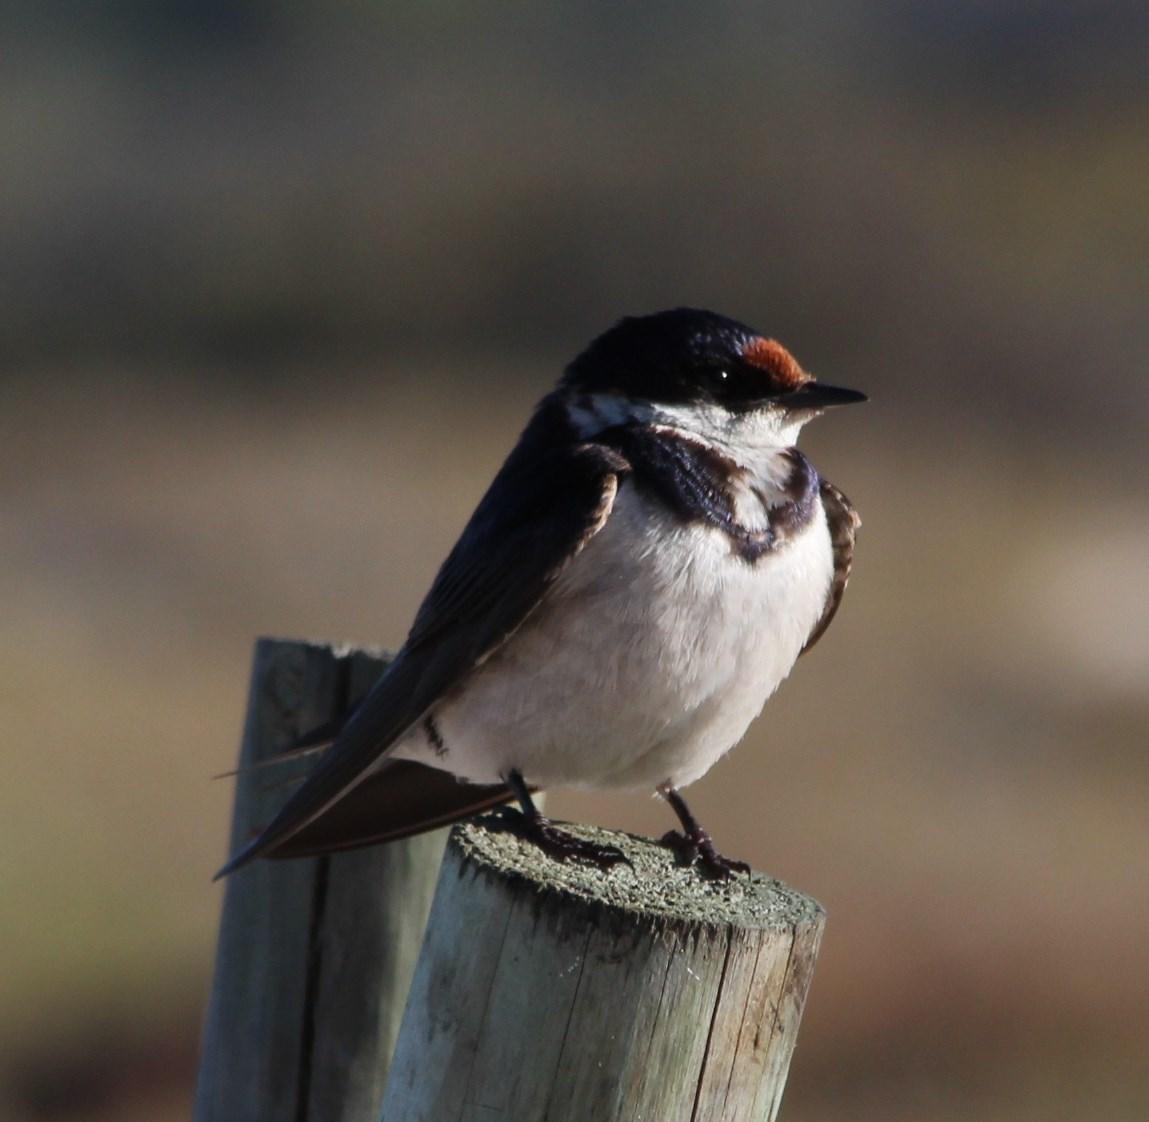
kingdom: Animalia
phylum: Chordata
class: Aves
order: Passeriformes
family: Hirundinidae
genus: Hirundo
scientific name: Hirundo albigularis
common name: White-throated swallow
